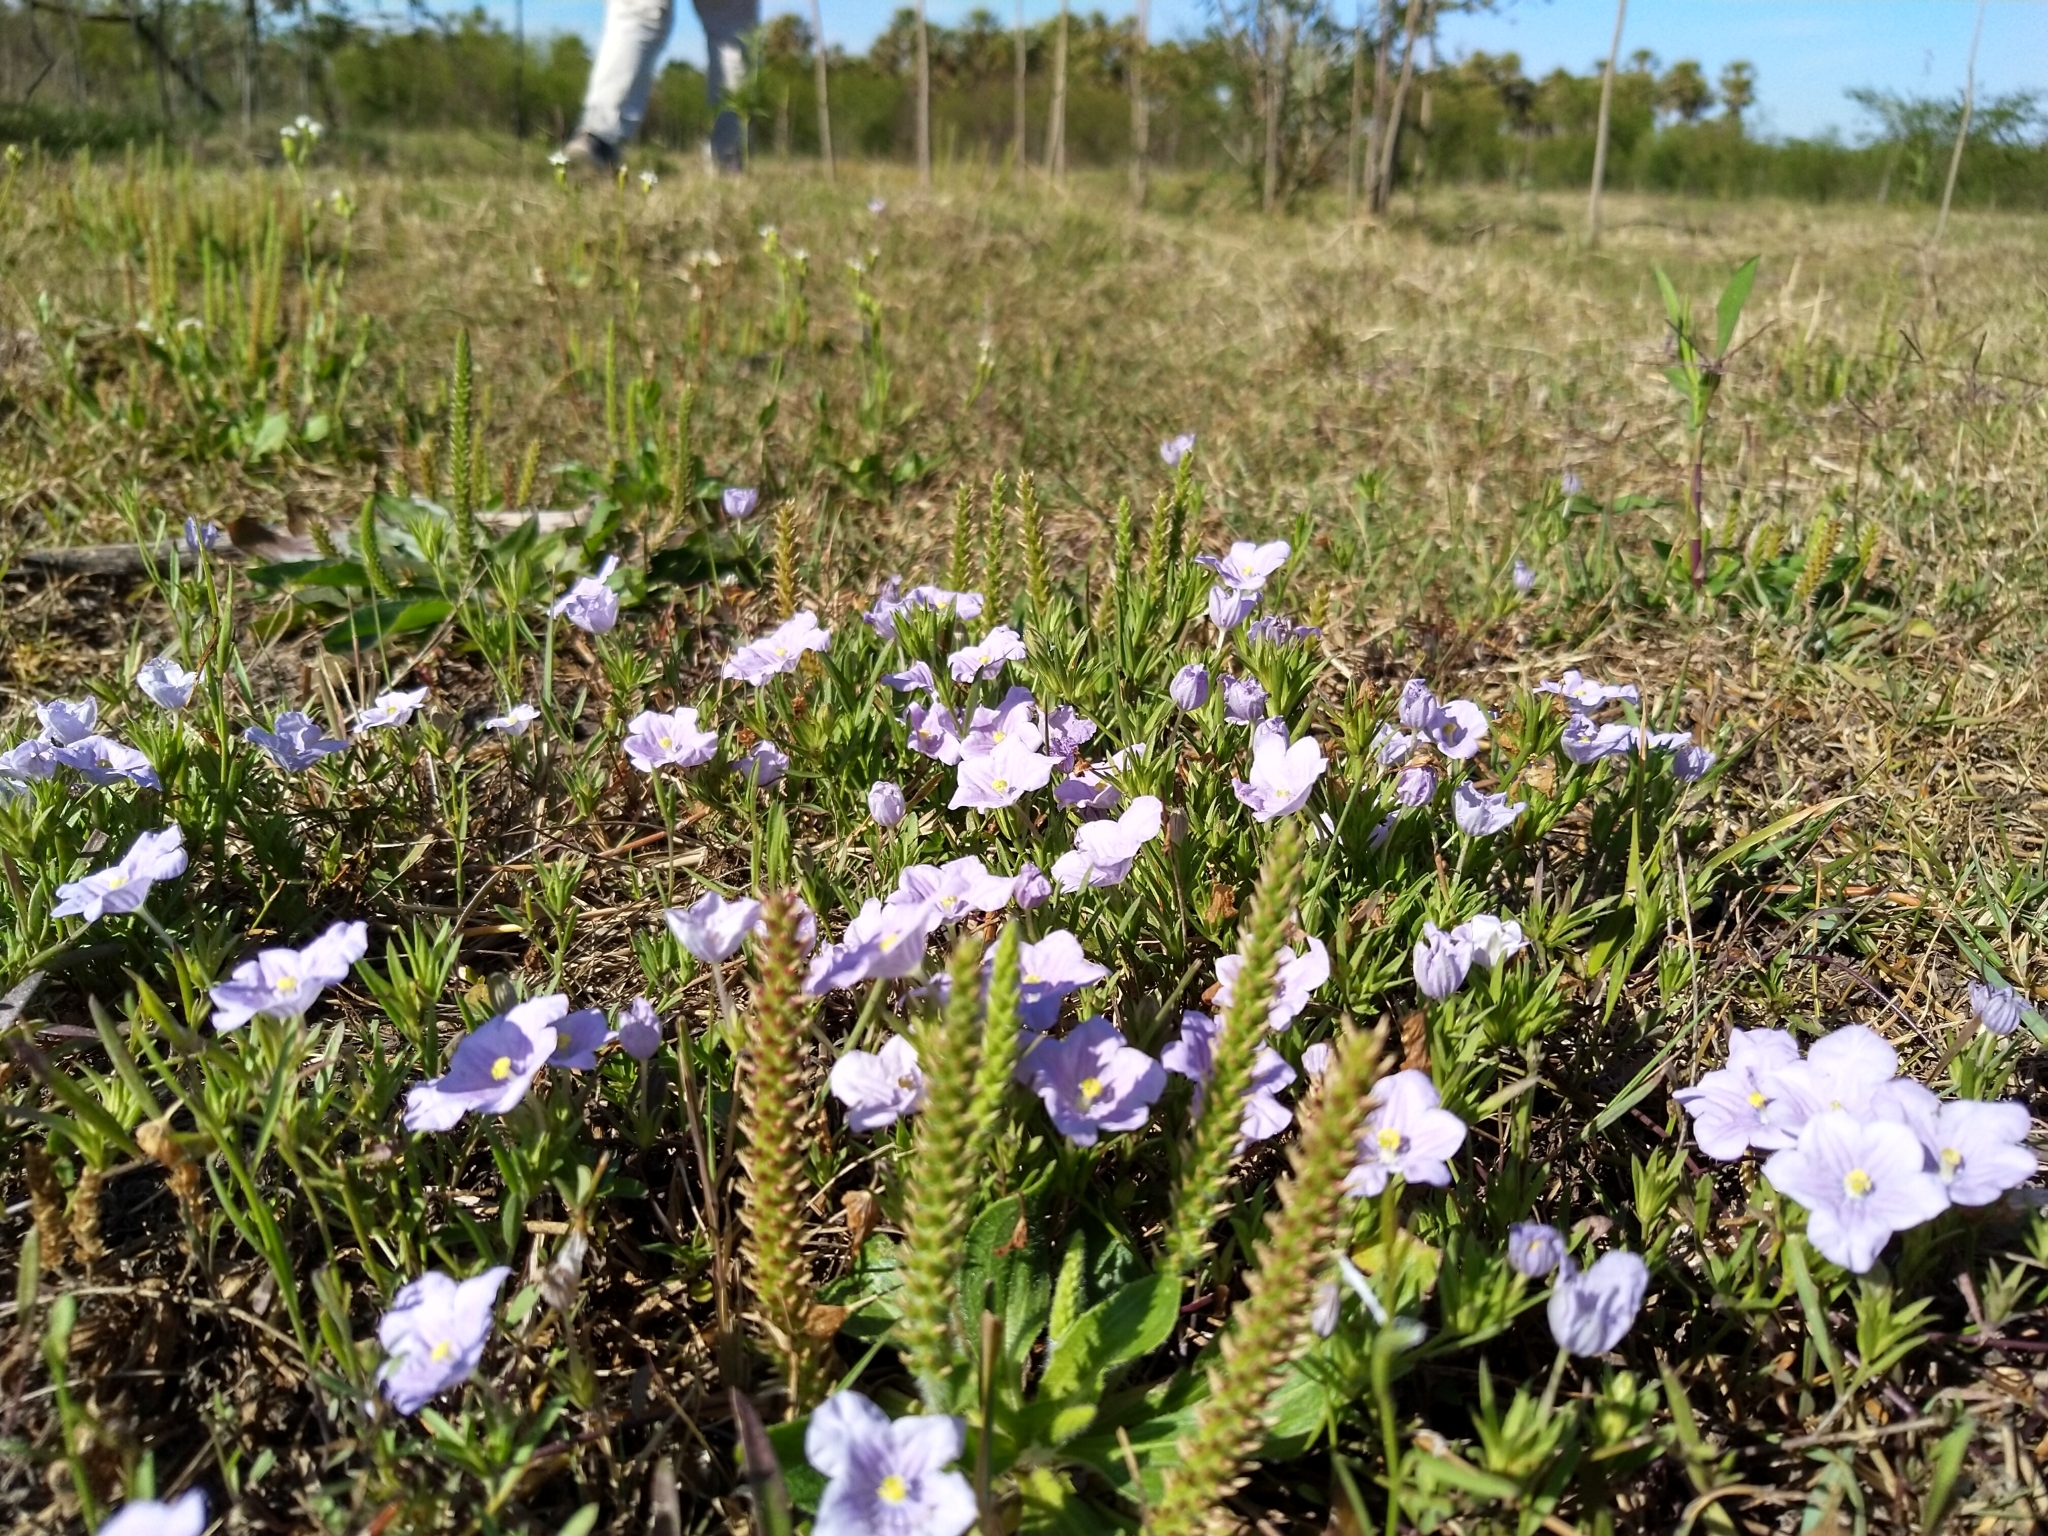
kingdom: Plantae
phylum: Tracheophyta
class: Magnoliopsida
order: Solanales
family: Solanaceae
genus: Nierembergia
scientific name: Nierembergia aristata
